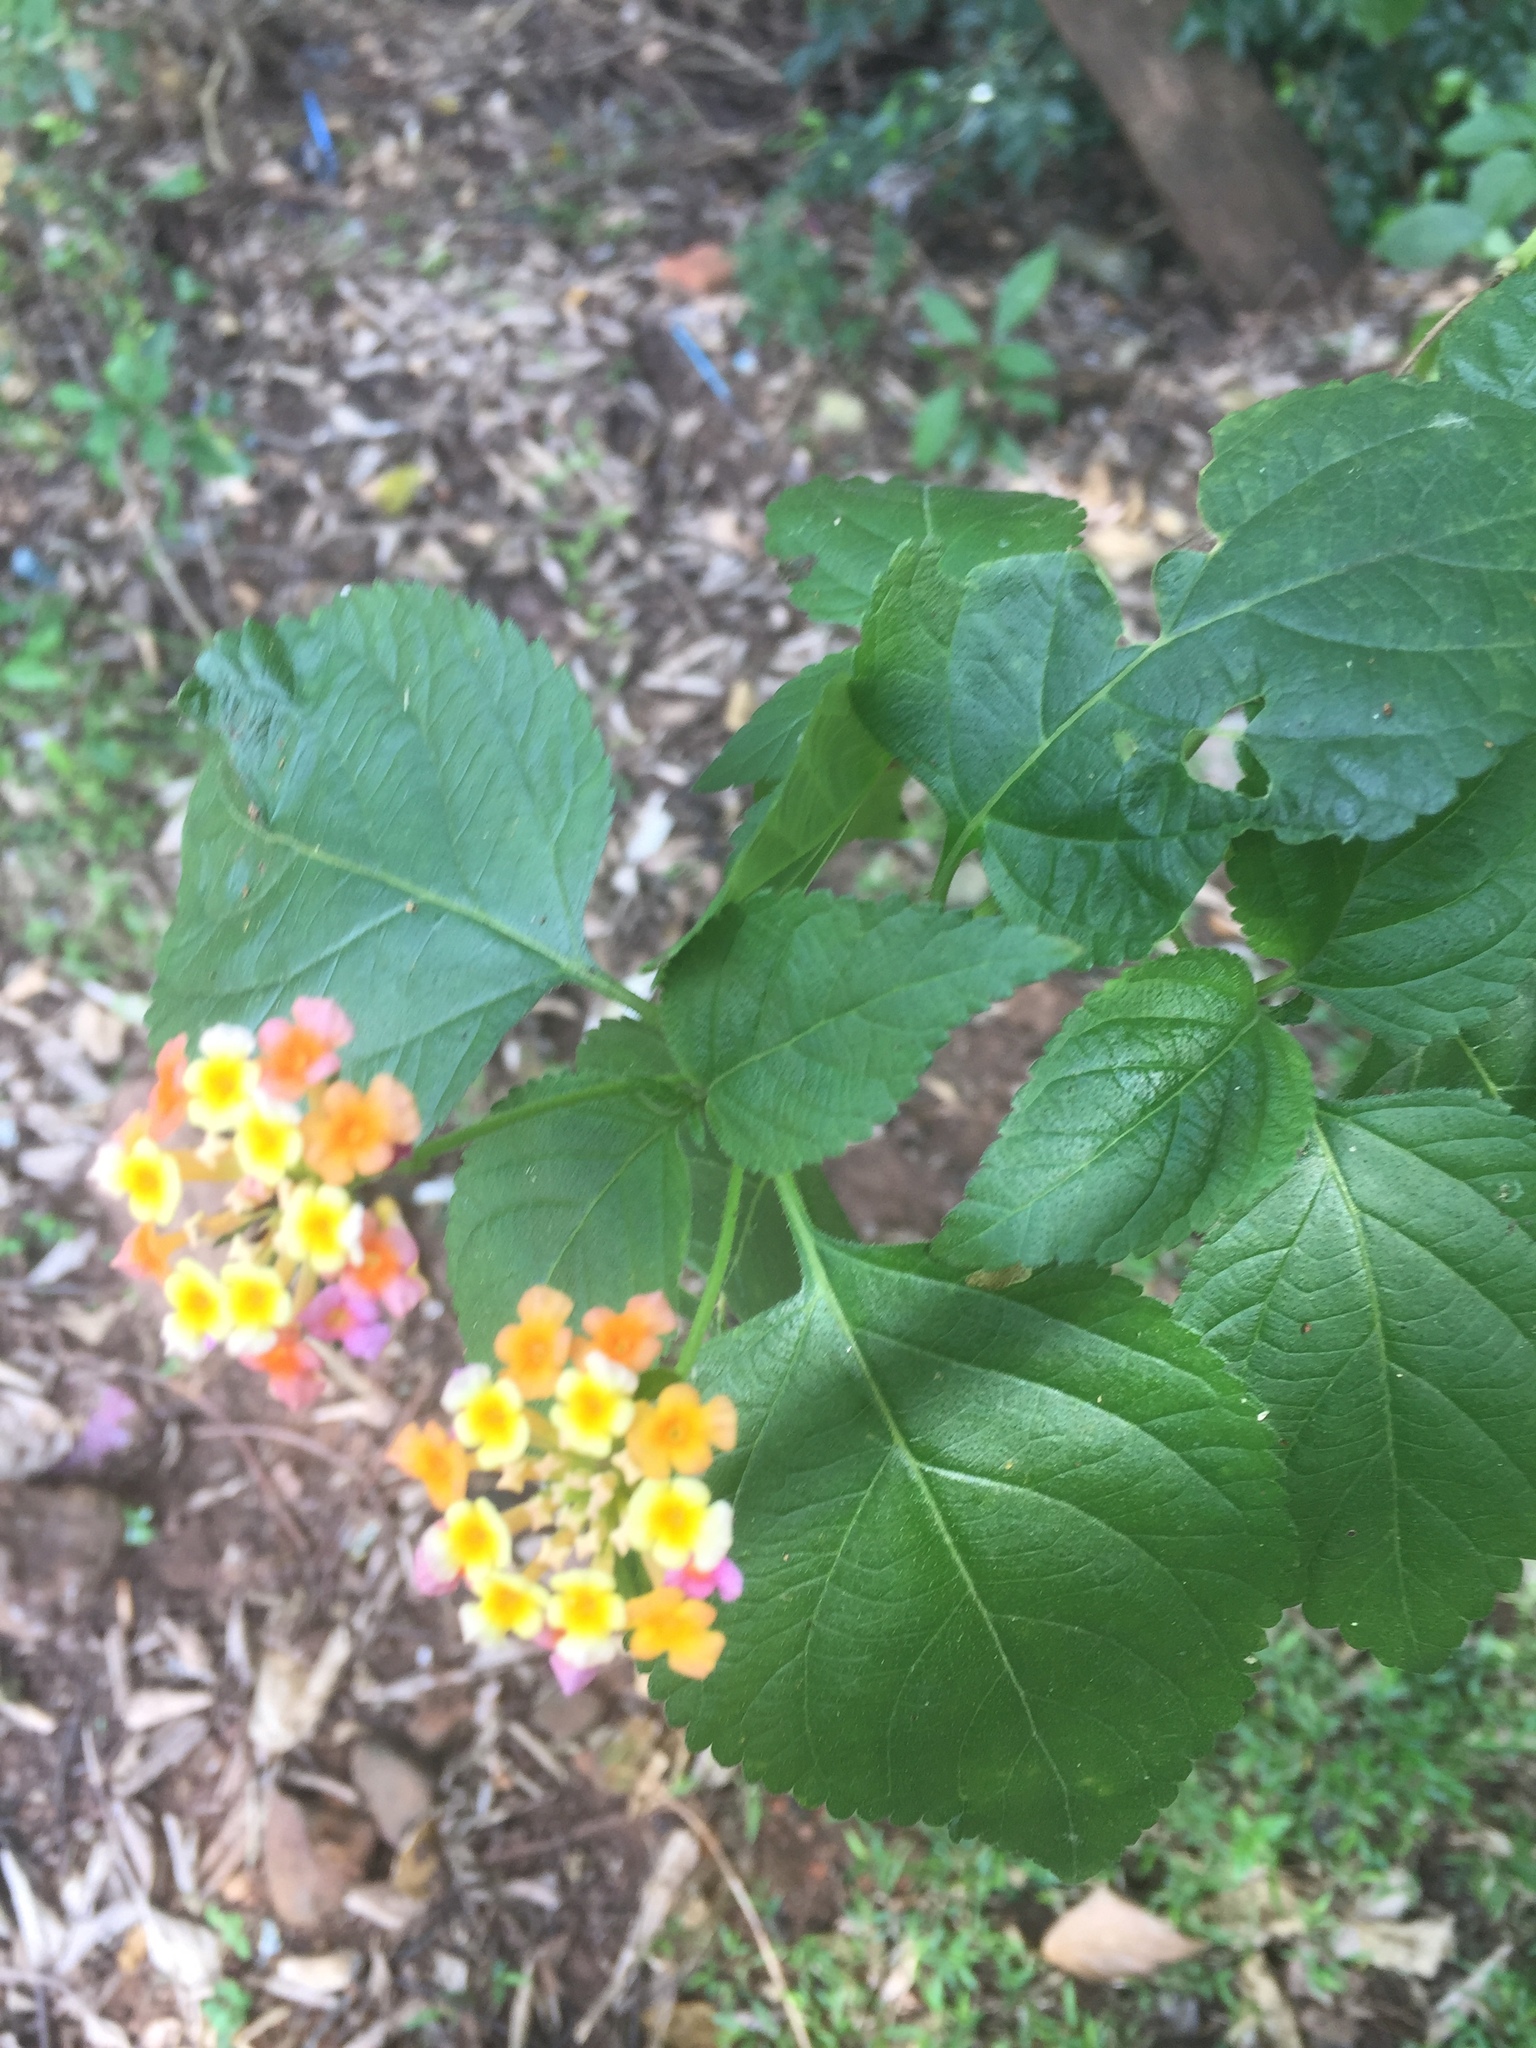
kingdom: Plantae
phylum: Tracheophyta
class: Magnoliopsida
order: Lamiales
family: Verbenaceae
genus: Lantana
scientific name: Lantana camara
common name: Lantana
